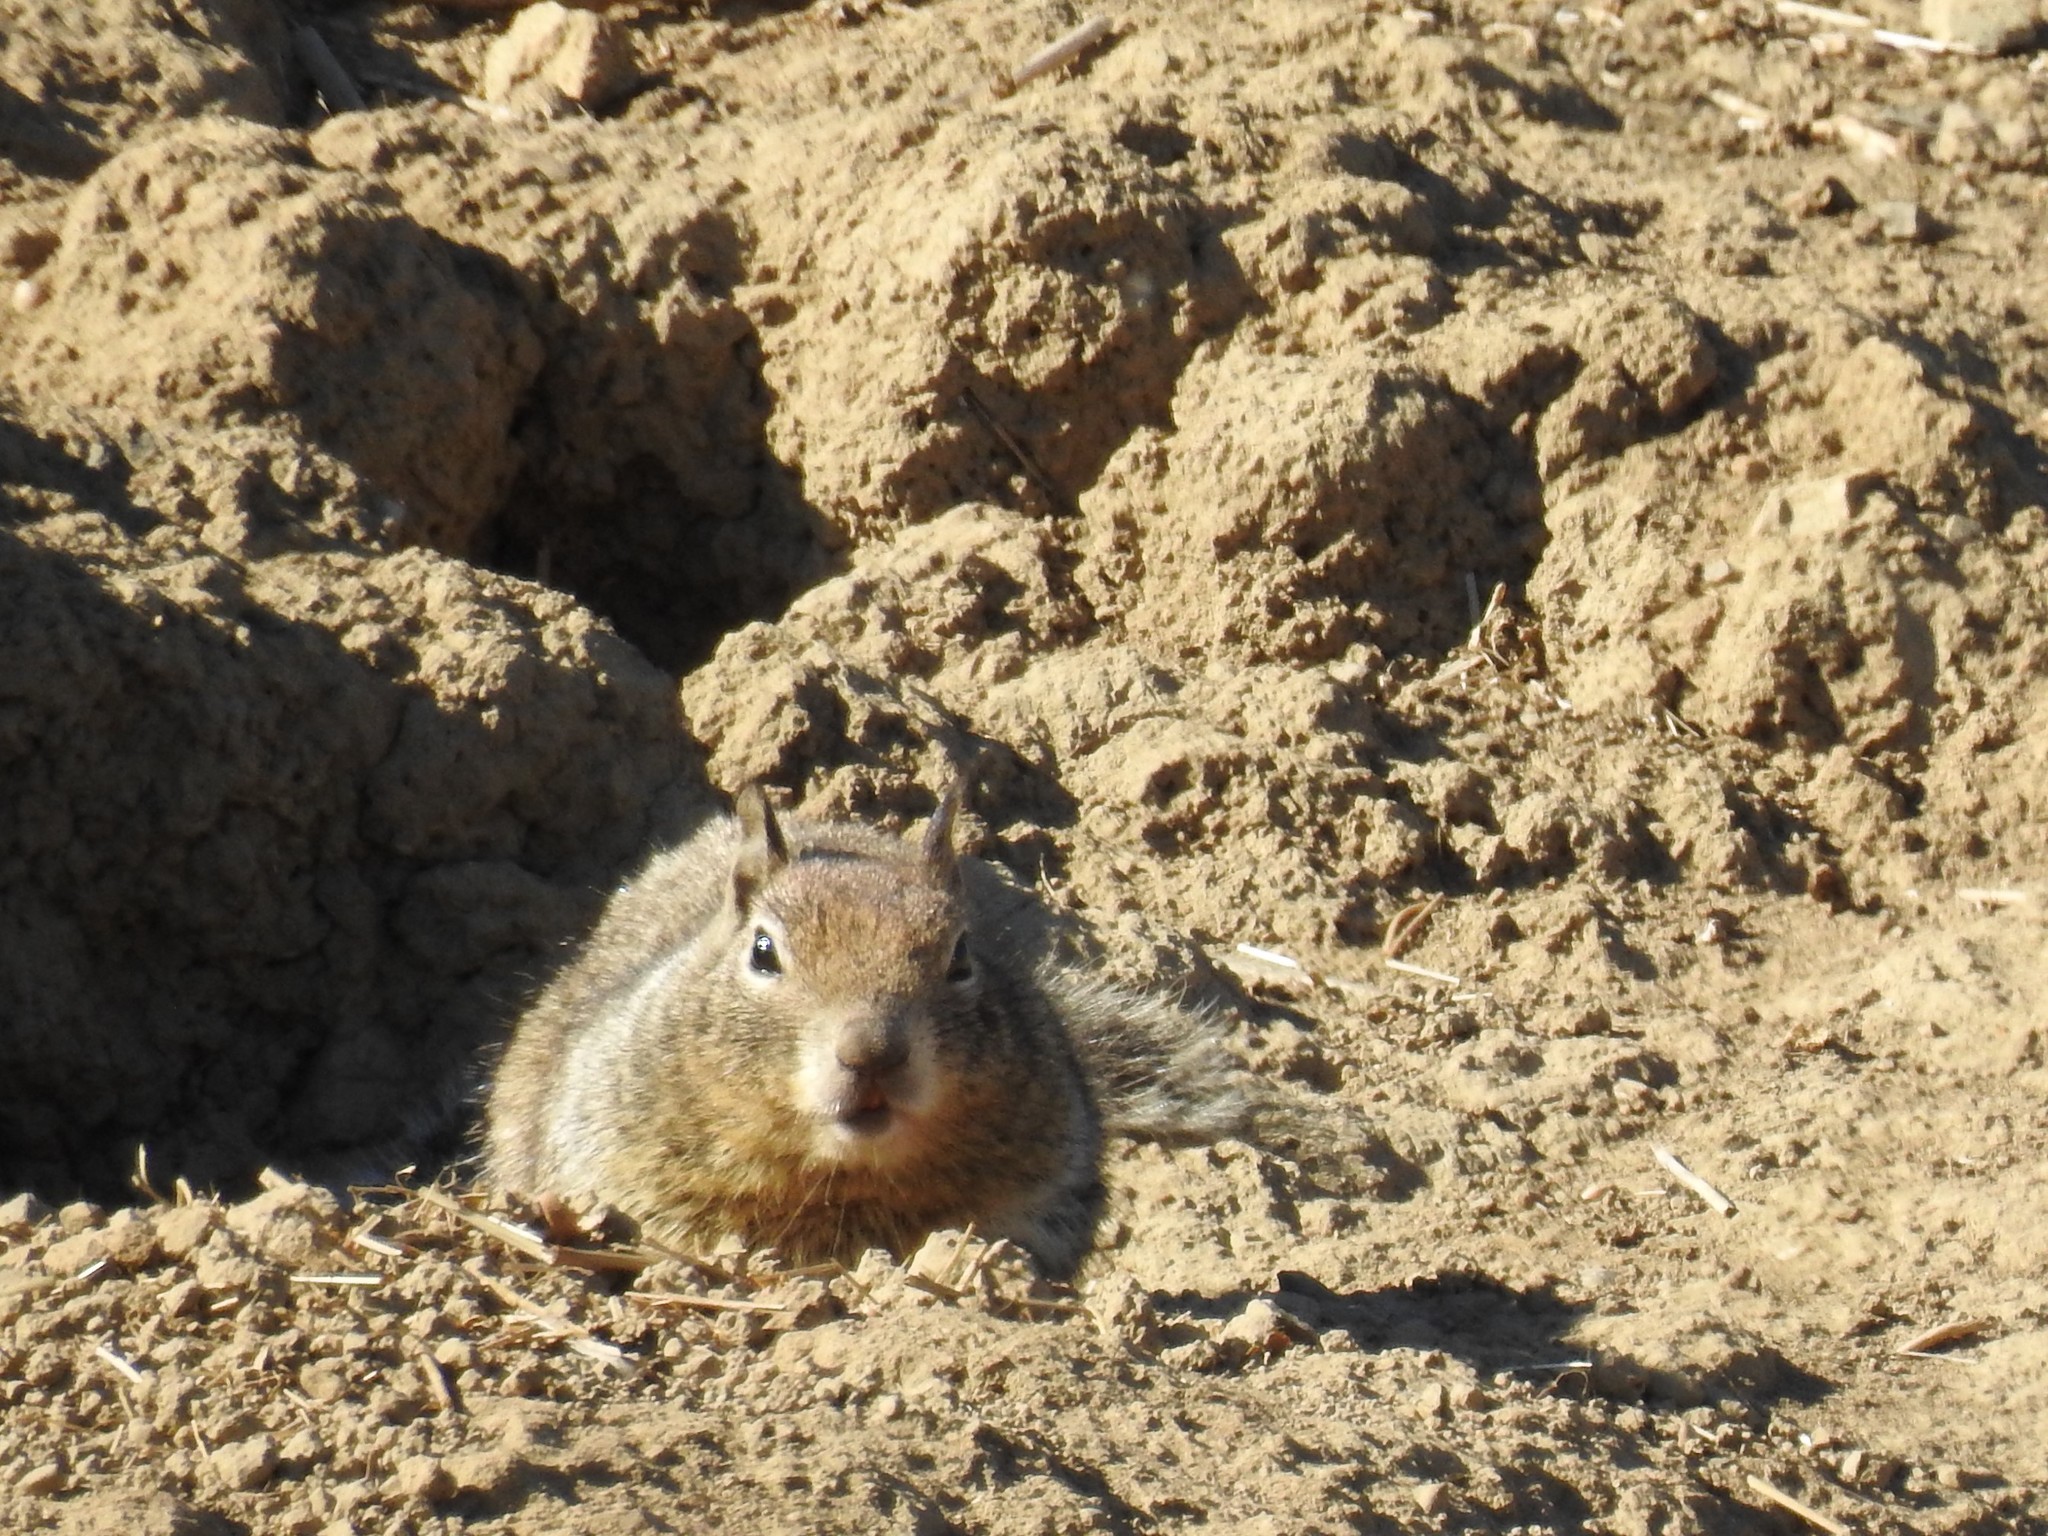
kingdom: Animalia
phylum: Chordata
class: Mammalia
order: Rodentia
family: Sciuridae
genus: Otospermophilus
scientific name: Otospermophilus beecheyi
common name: California ground squirrel
